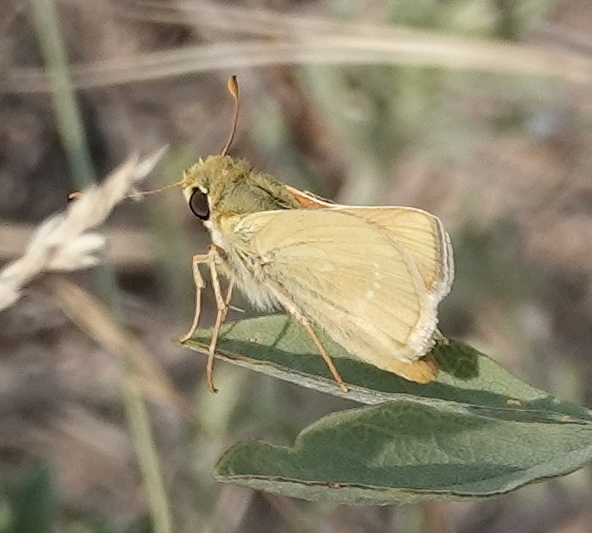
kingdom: Animalia
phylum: Arthropoda
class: Insecta
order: Lepidoptera
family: Hesperiidae
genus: Hesperia
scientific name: Hesperia leonardus
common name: Leonard's skipper
